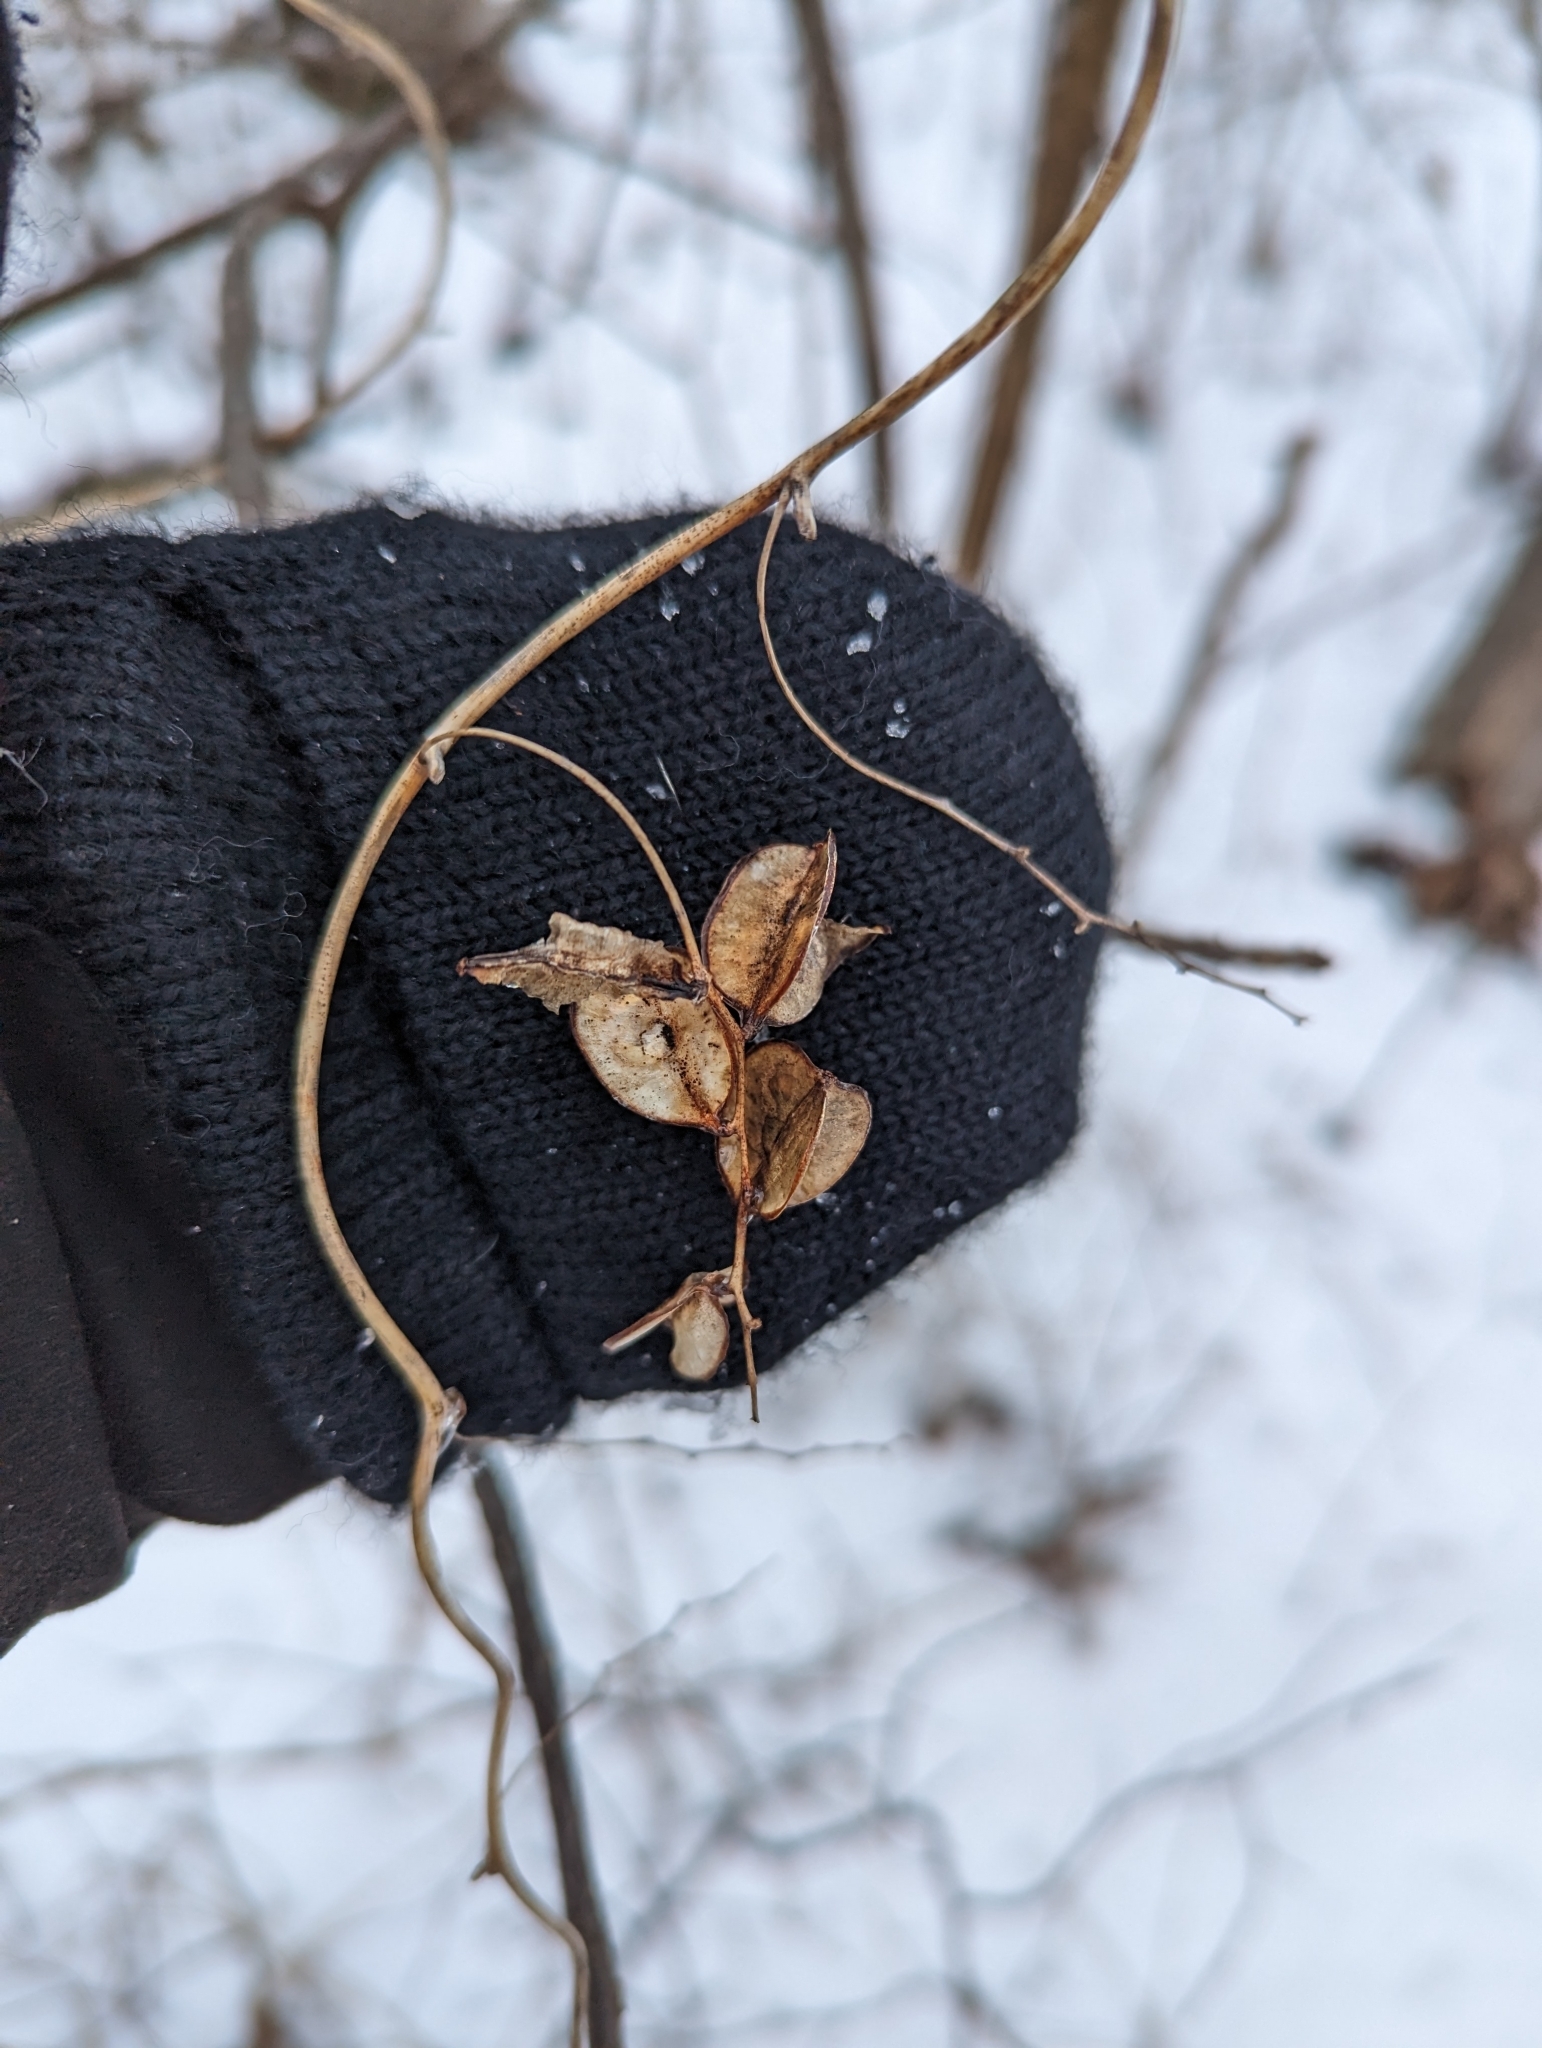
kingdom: Plantae
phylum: Tracheophyta
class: Liliopsida
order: Dioscoreales
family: Dioscoreaceae
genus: Dioscorea
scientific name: Dioscorea villosa
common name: Wild yam
